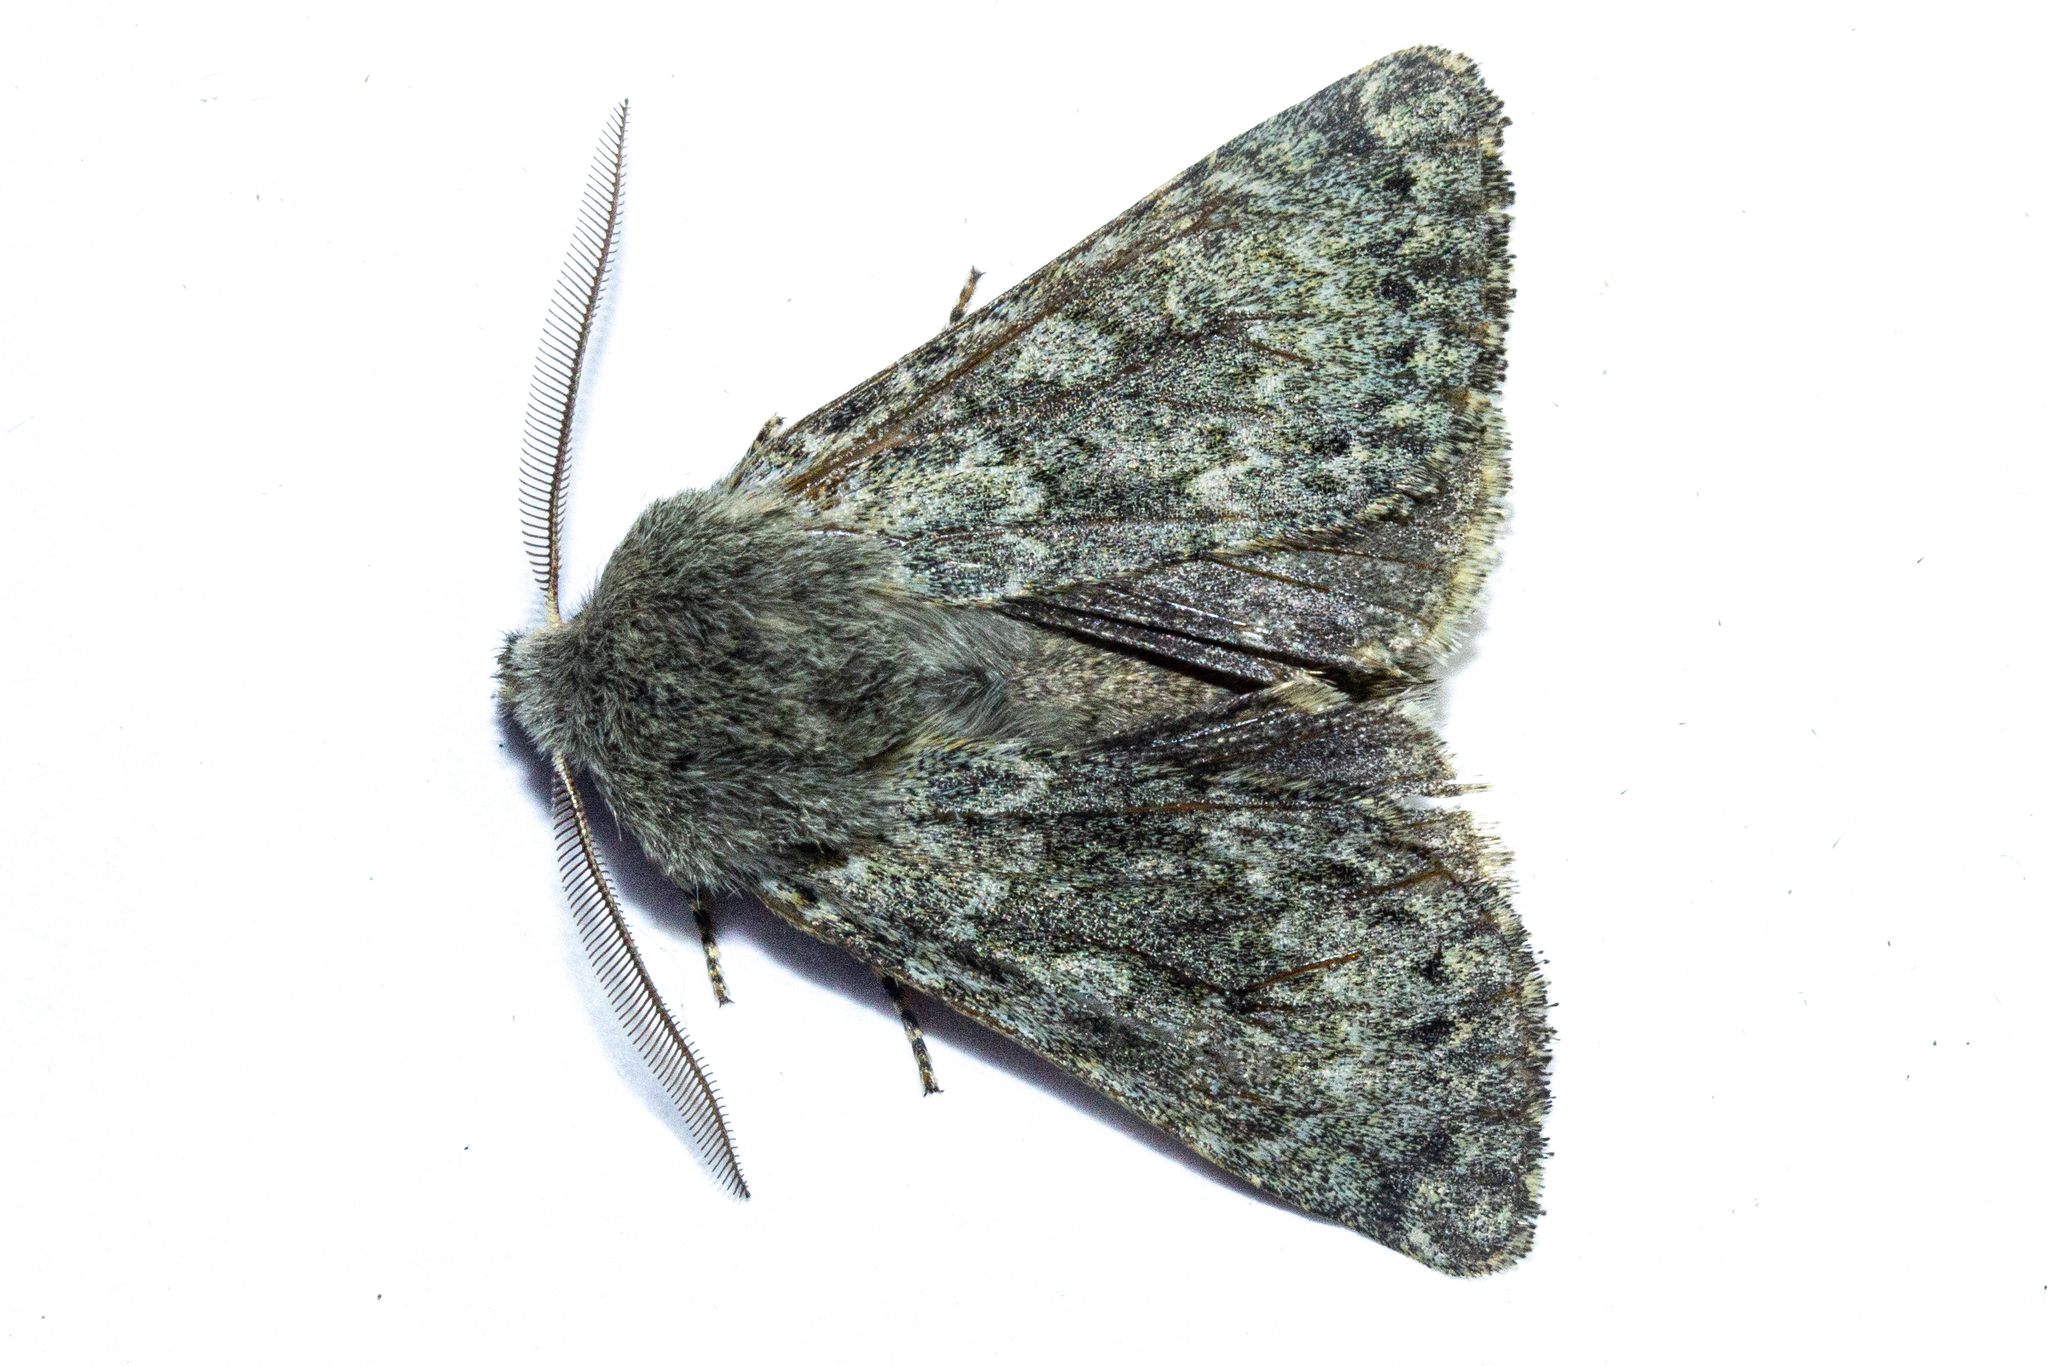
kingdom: Animalia
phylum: Arthropoda
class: Insecta
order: Lepidoptera
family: Noctuidae
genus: Ichneutica
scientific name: Ichneutica cana
